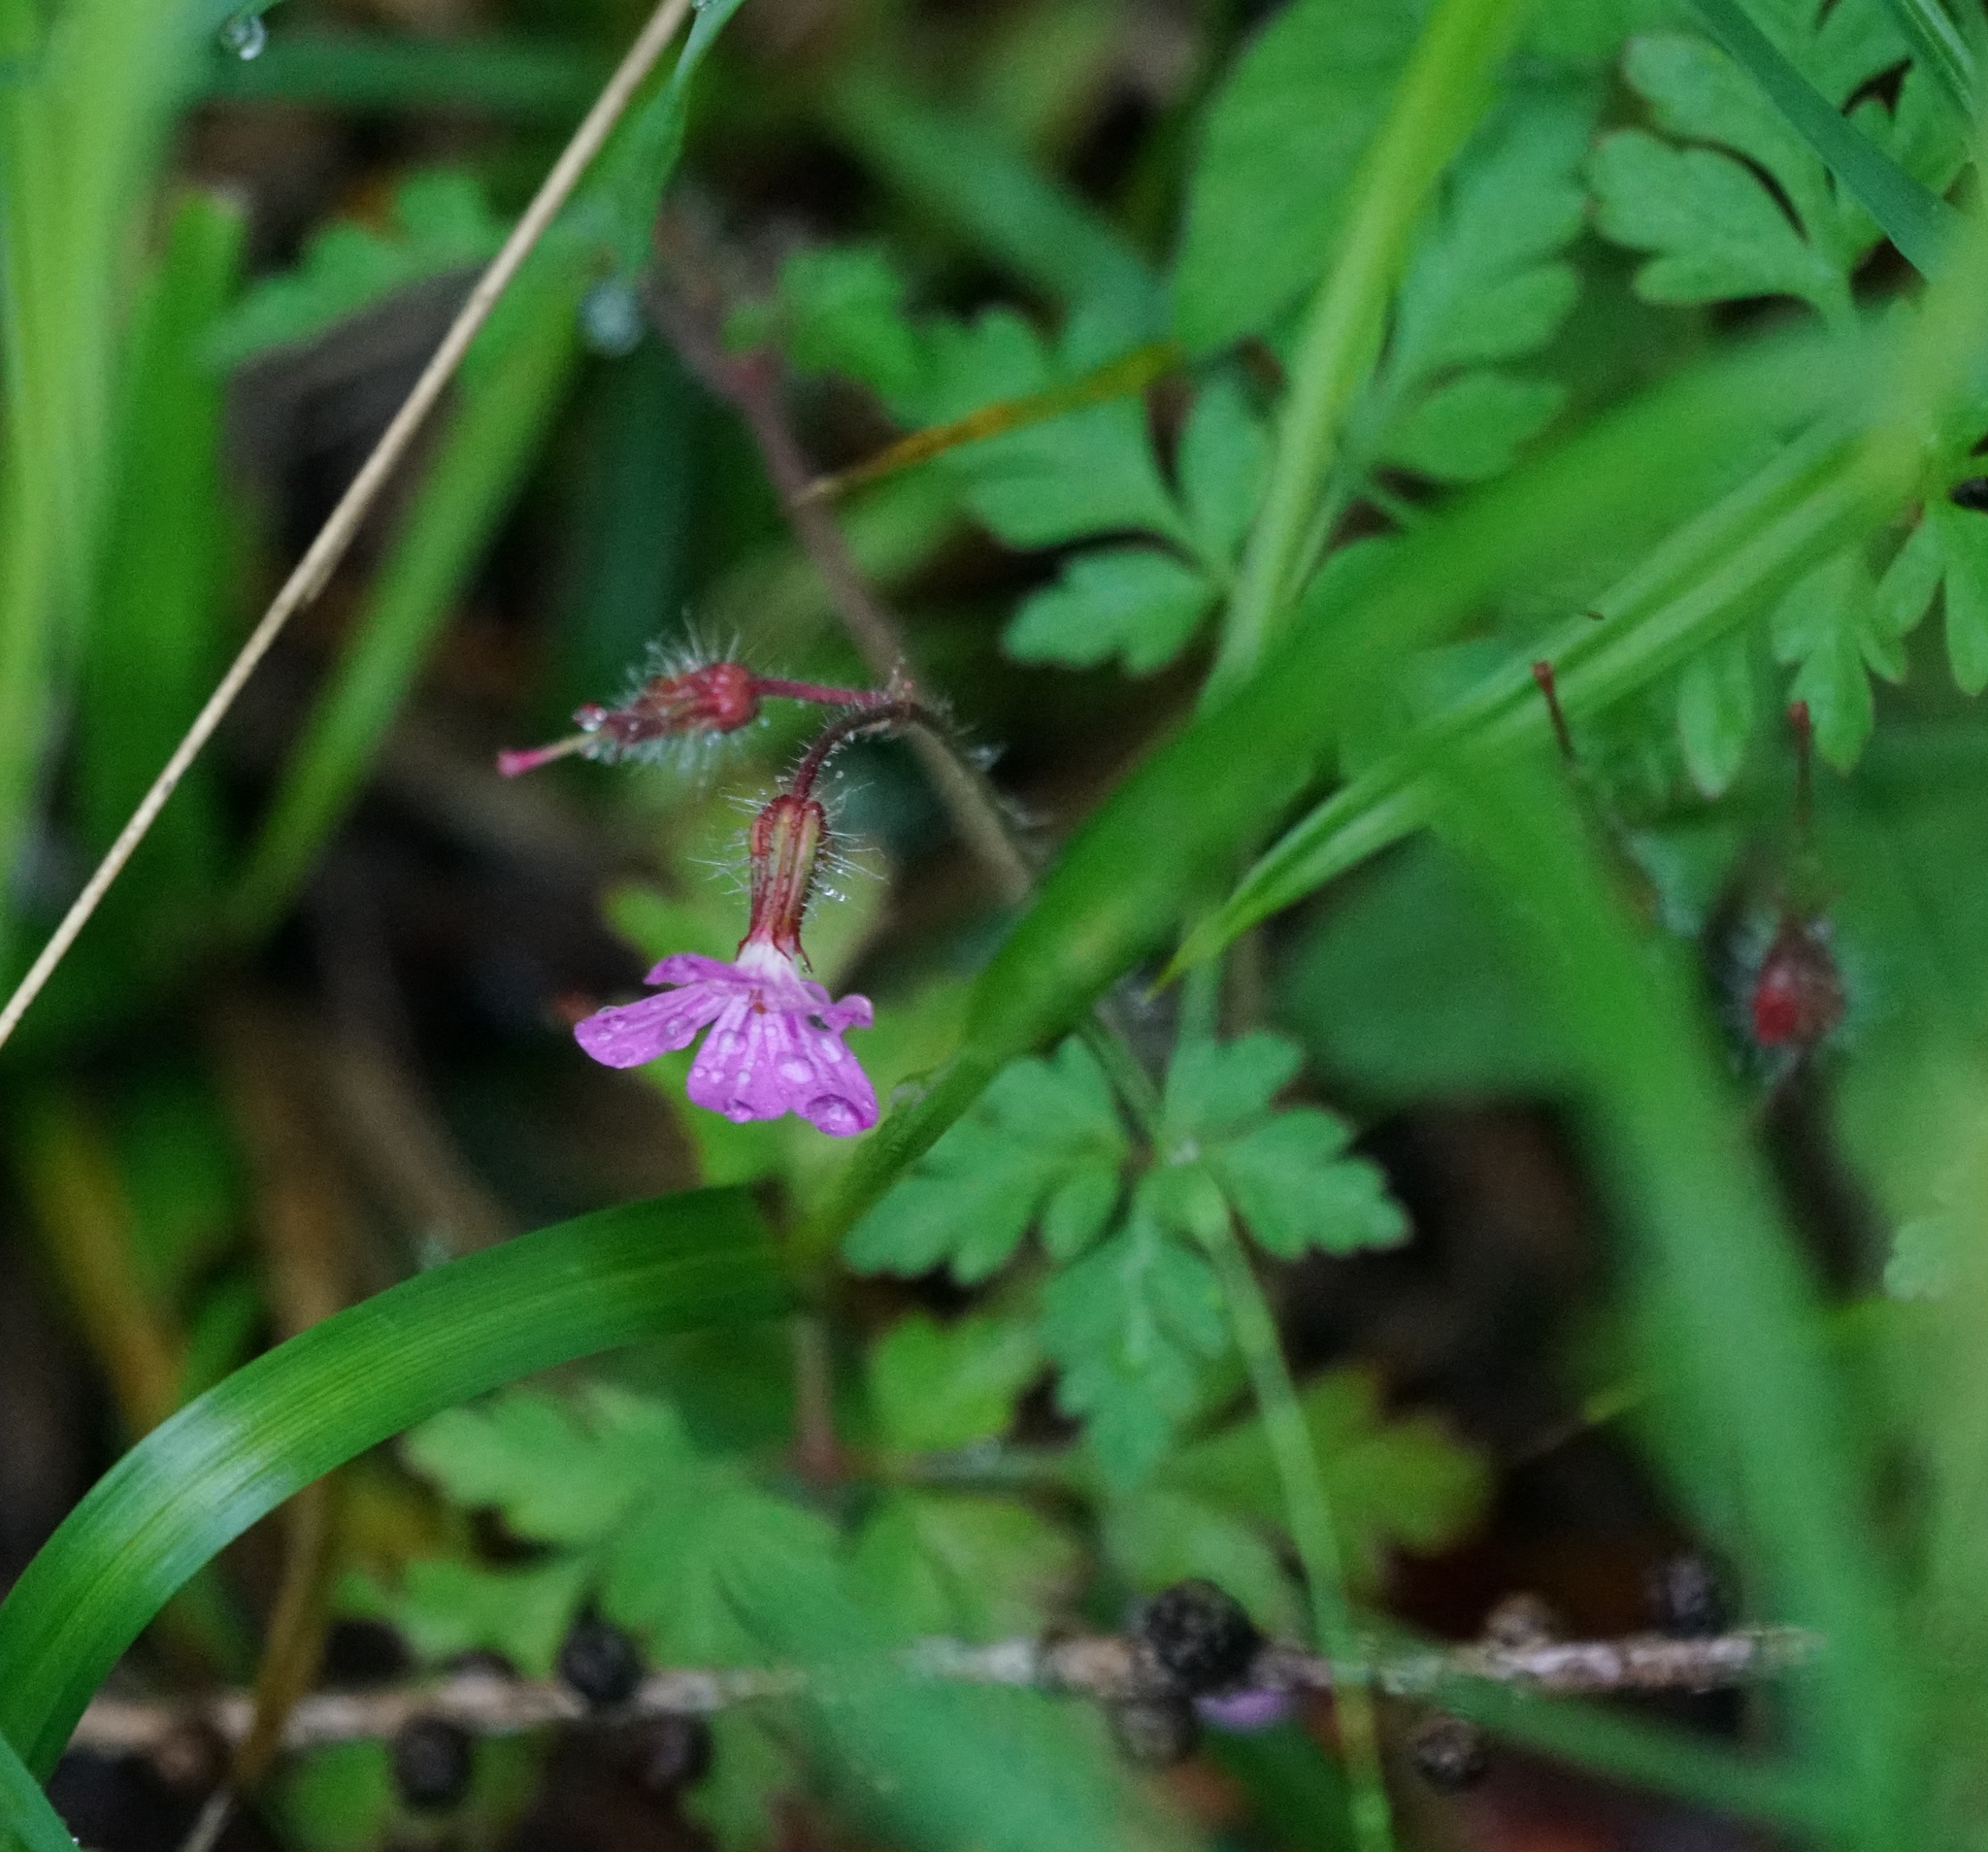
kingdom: Plantae
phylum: Tracheophyta
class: Magnoliopsida
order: Geraniales
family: Geraniaceae
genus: Geranium
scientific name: Geranium robertianum
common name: Herb-robert
